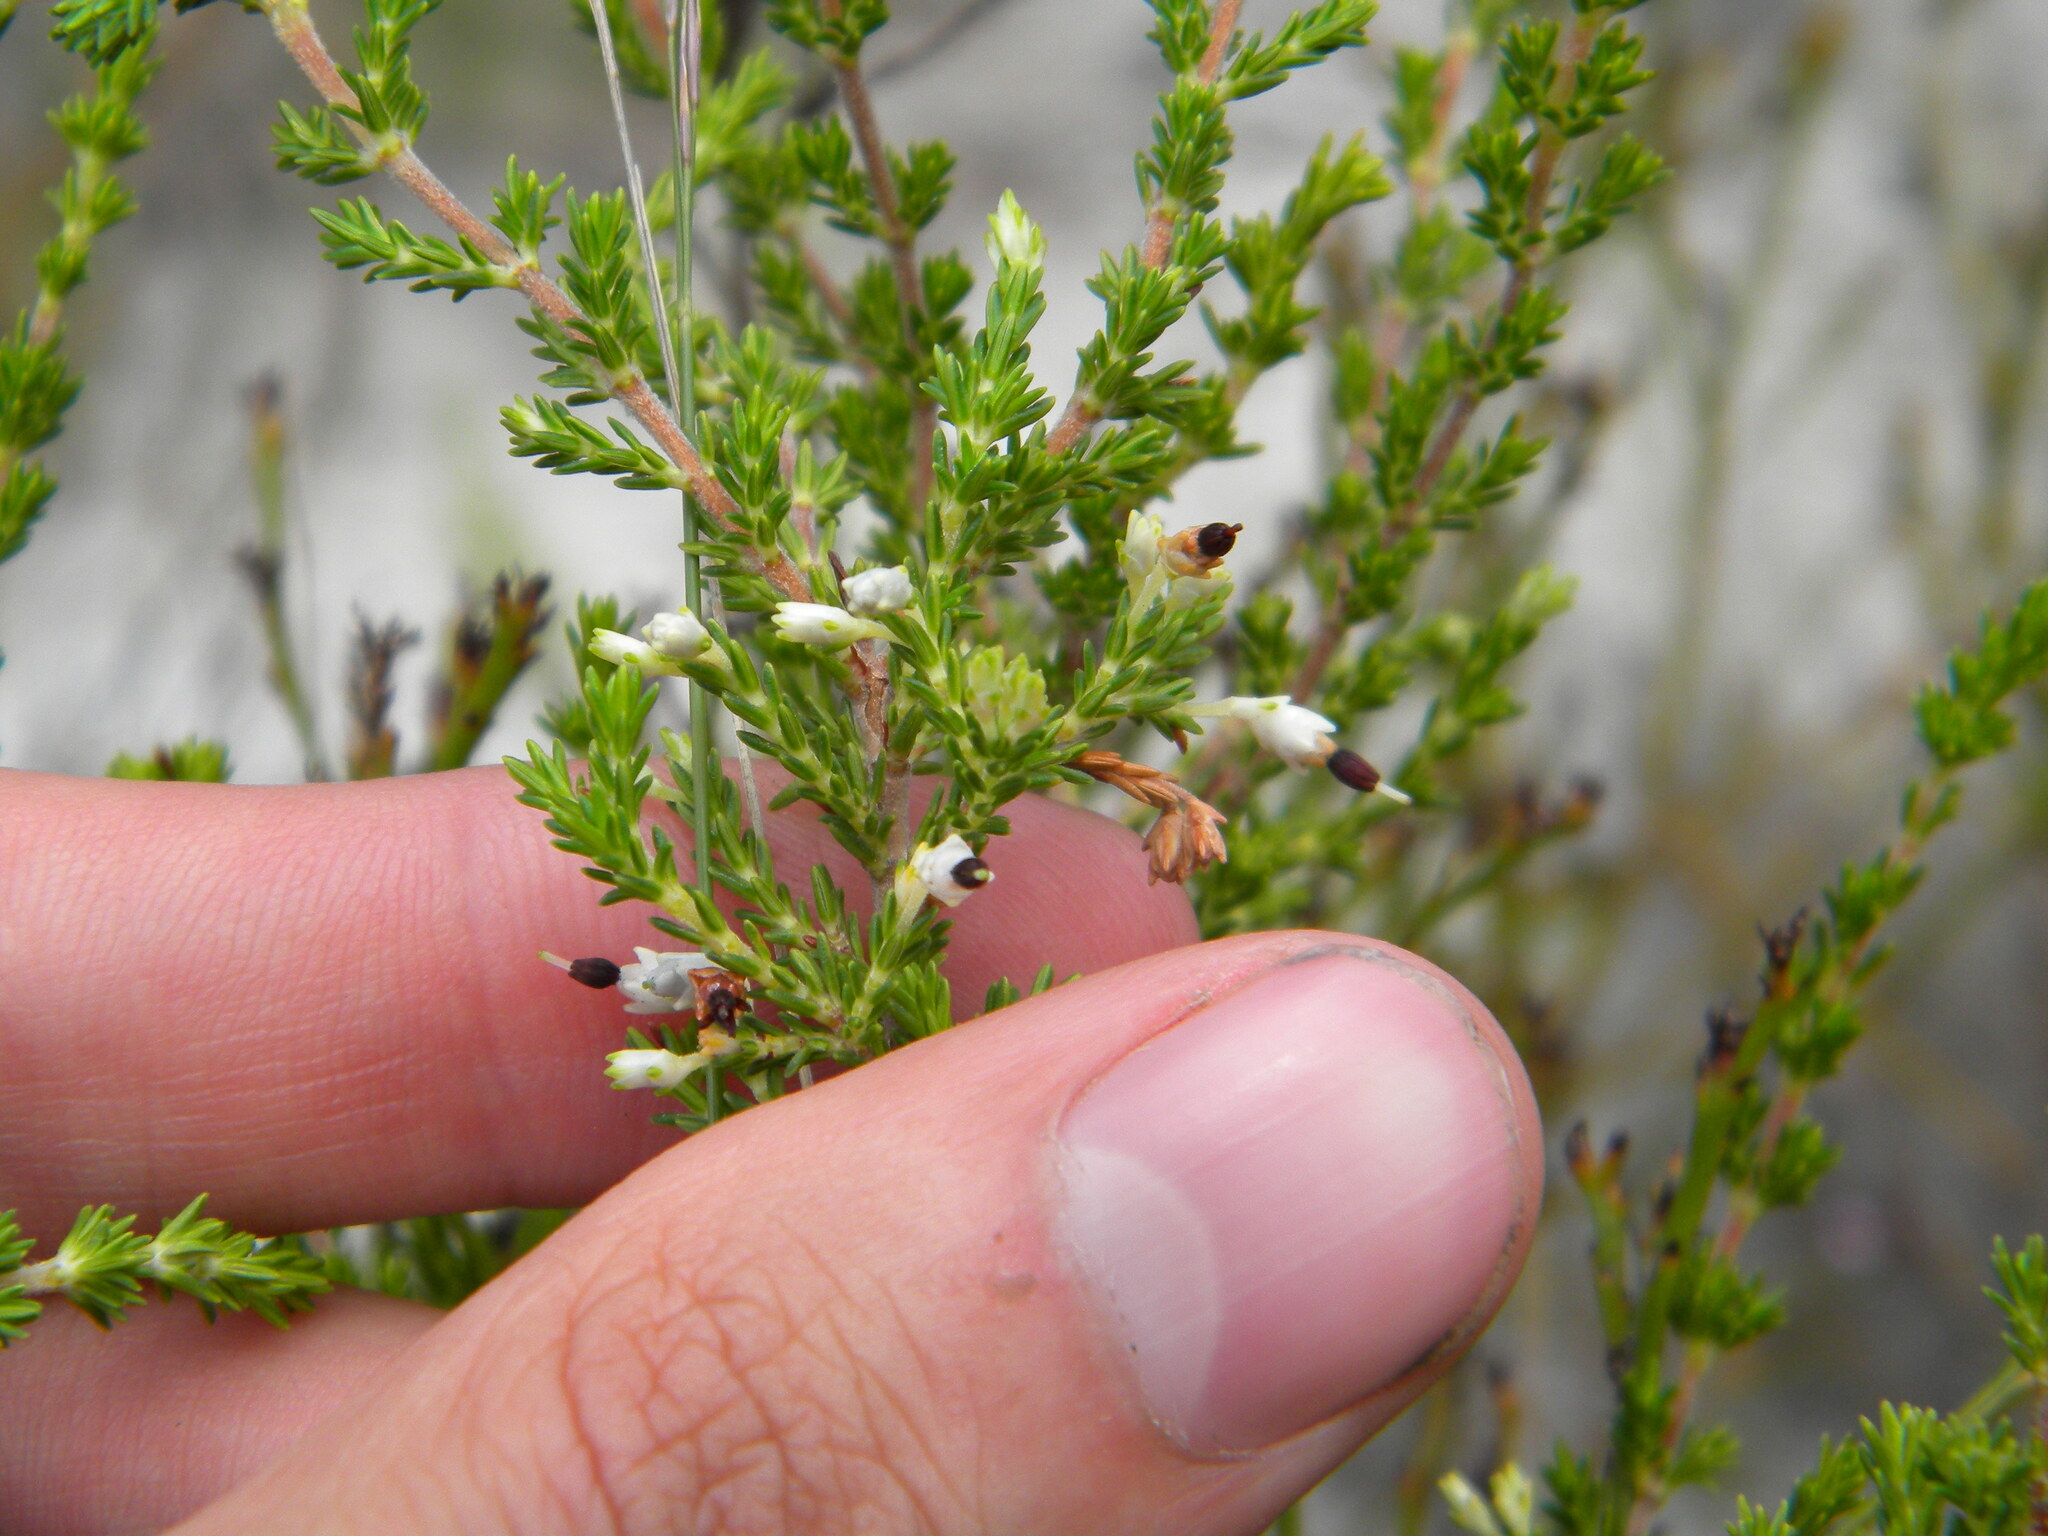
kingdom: Plantae
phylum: Tracheophyta
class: Magnoliopsida
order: Ericales
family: Ericaceae
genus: Erica
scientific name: Erica imbricata
